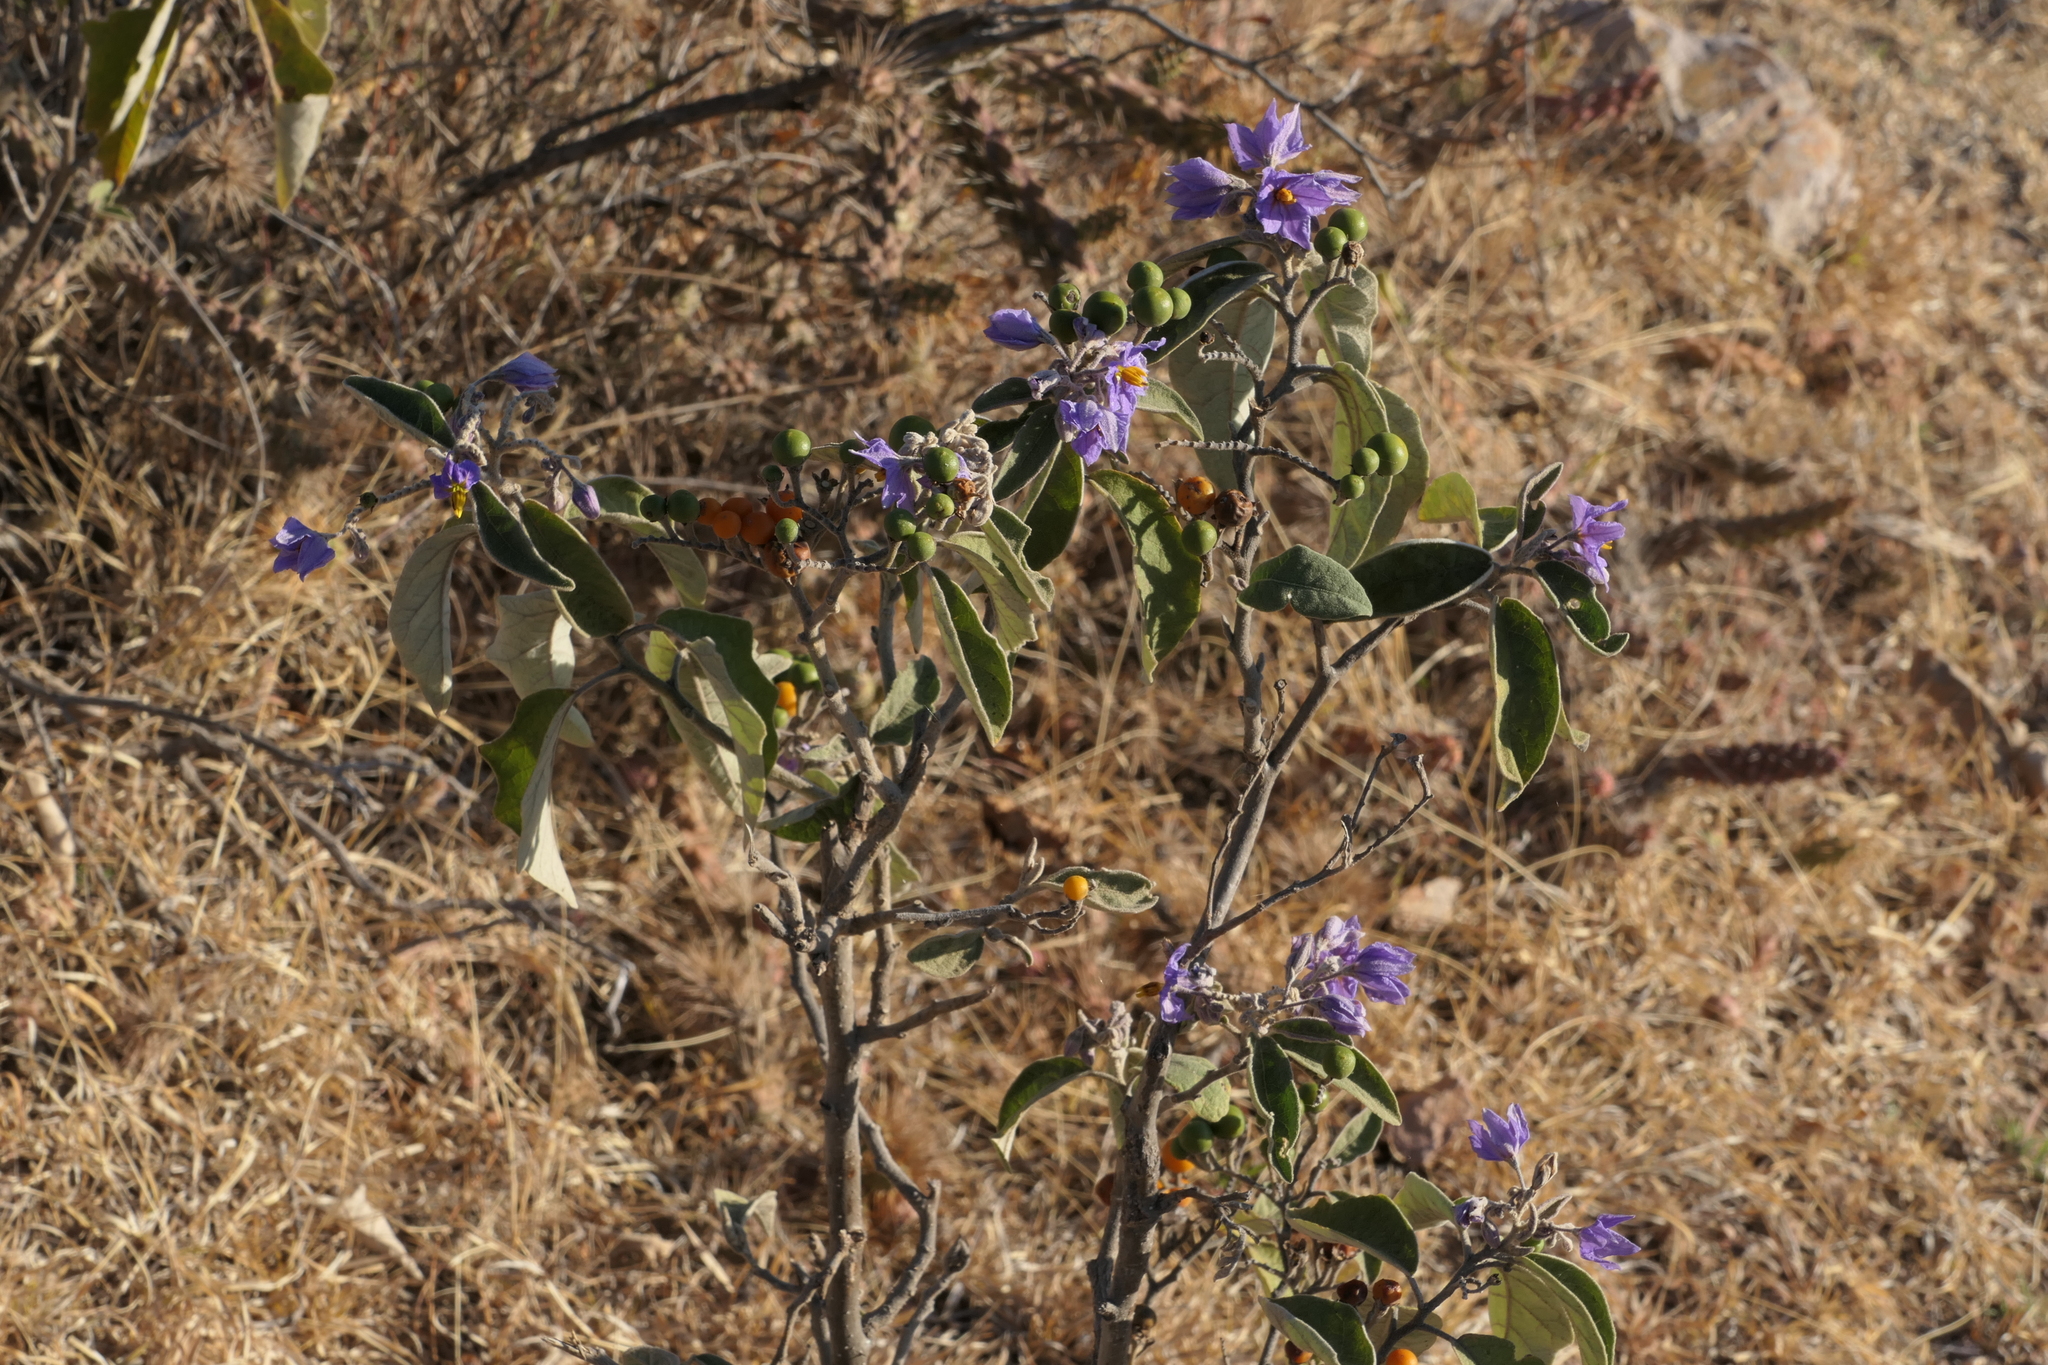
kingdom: Plantae
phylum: Tracheophyta
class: Magnoliopsida
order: Solanales
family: Solanaceae
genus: Solanum
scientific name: Solanum lanceolatum
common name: Orangeberry nightshade
